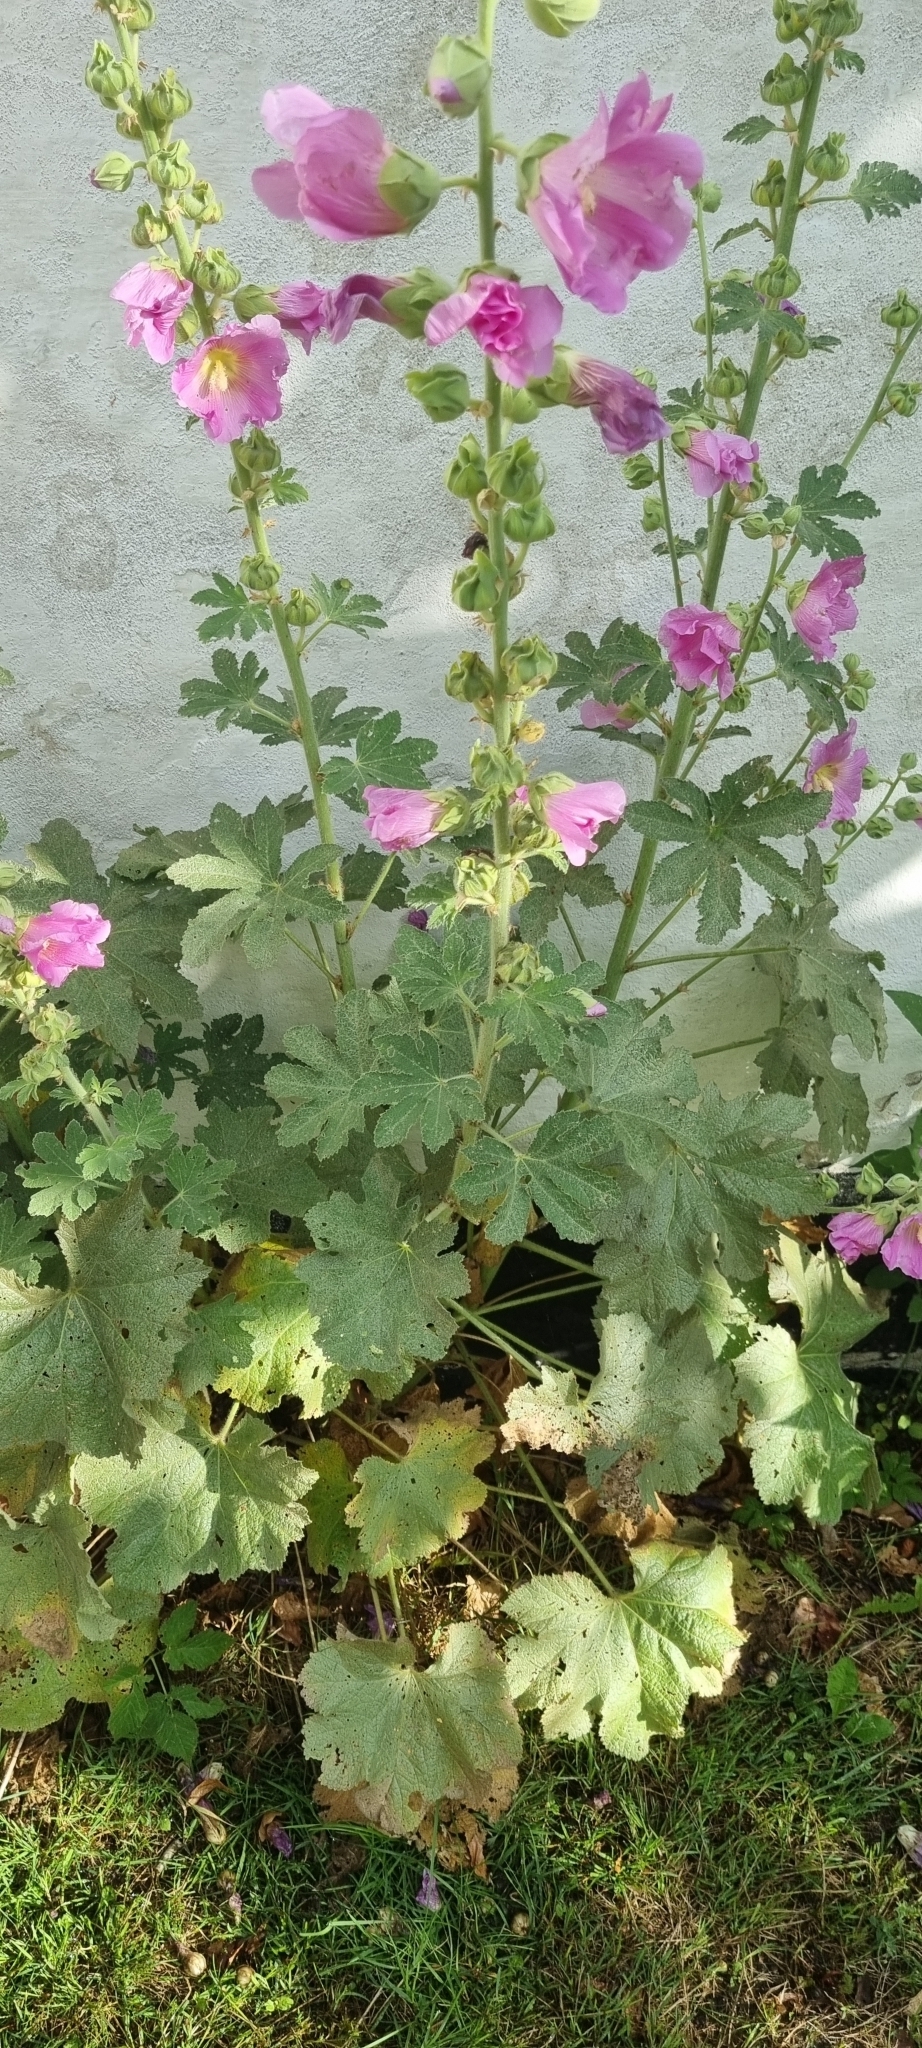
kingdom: Plantae
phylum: Tracheophyta
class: Magnoliopsida
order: Malvales
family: Malvaceae
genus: Alcea
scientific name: Alcea rosea
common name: Hollyhock
